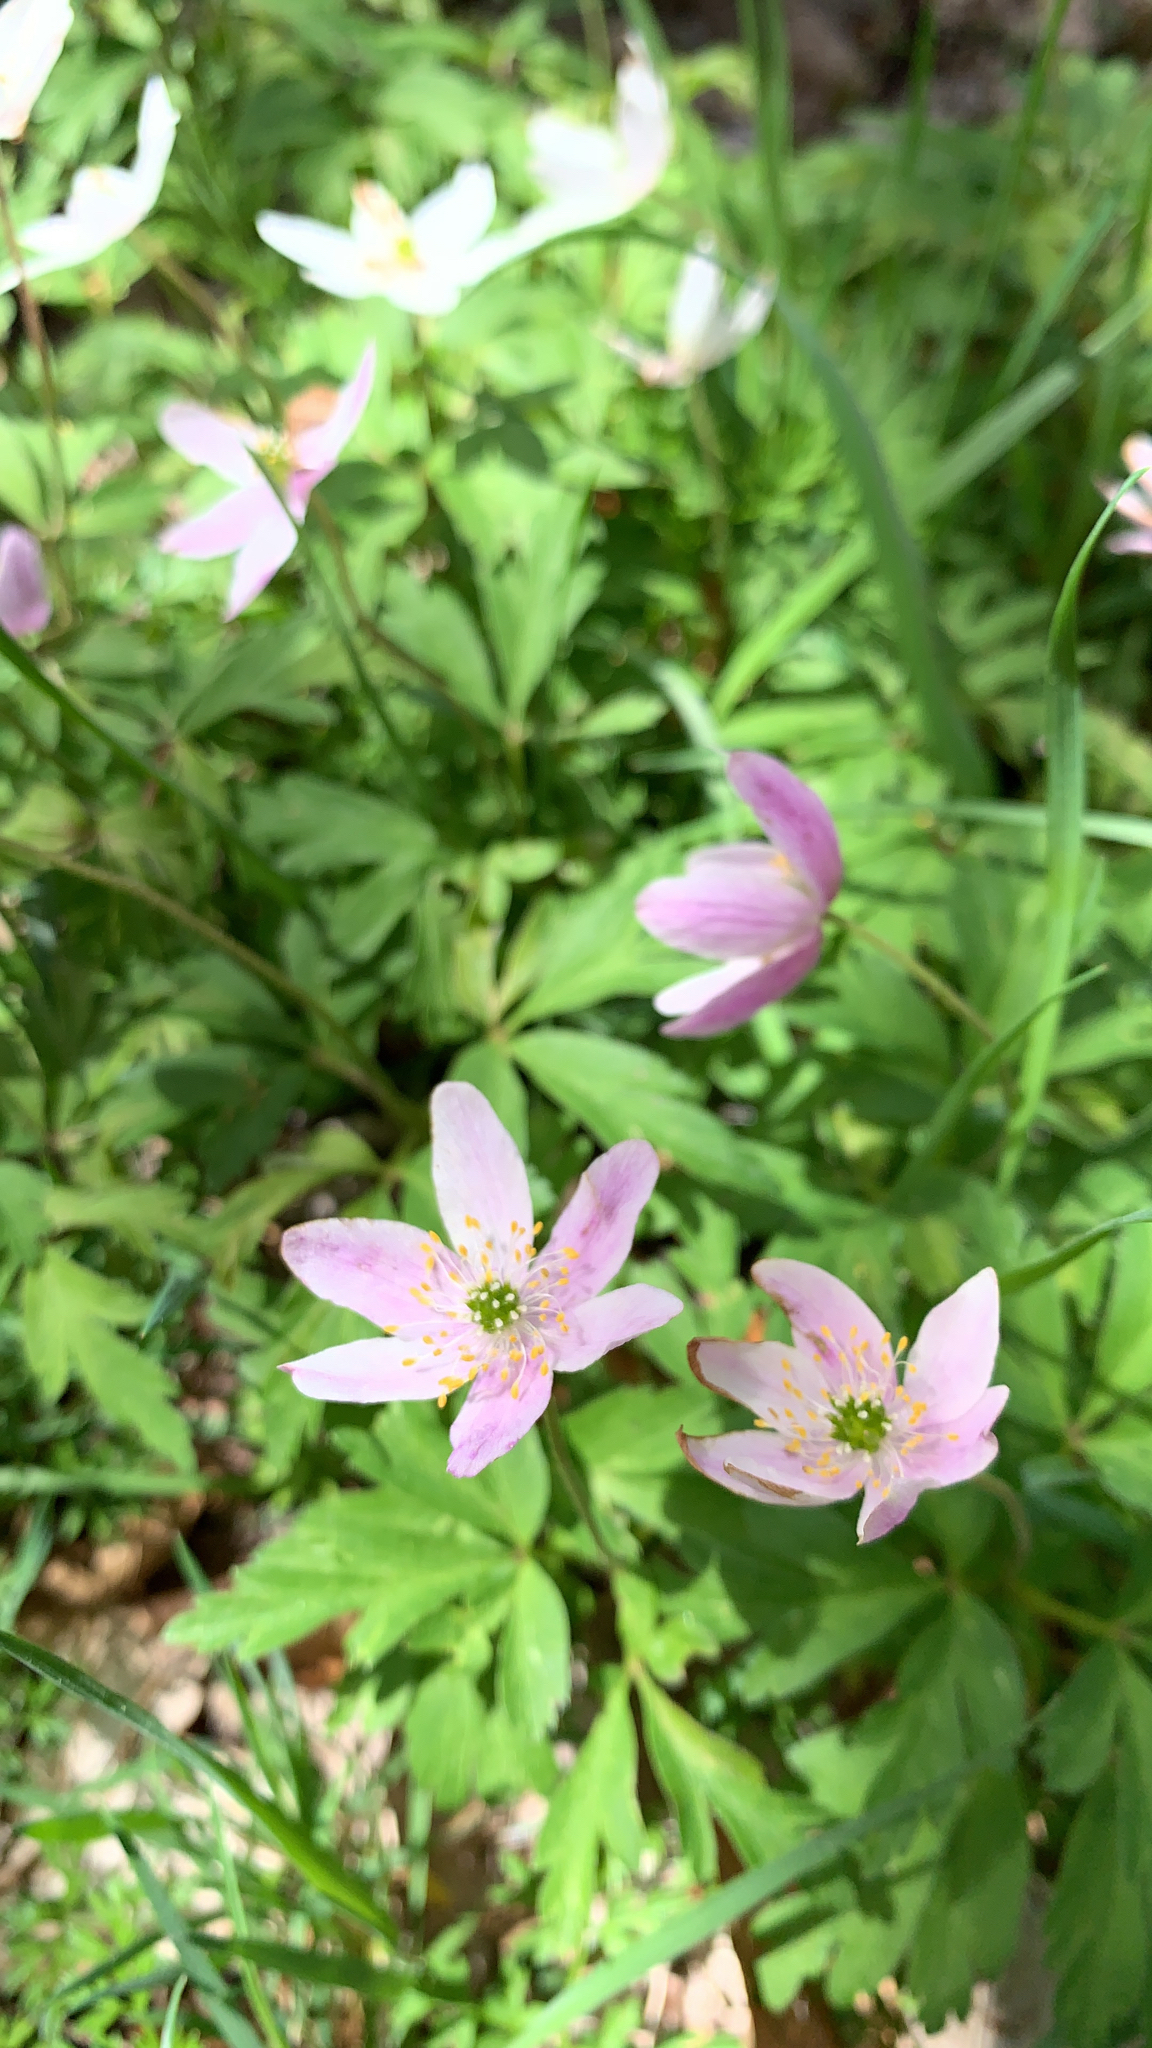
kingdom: Plantae
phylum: Tracheophyta
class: Magnoliopsida
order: Ranunculales
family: Ranunculaceae
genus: Anemone
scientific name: Anemone nemorosa
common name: Wood anemone
